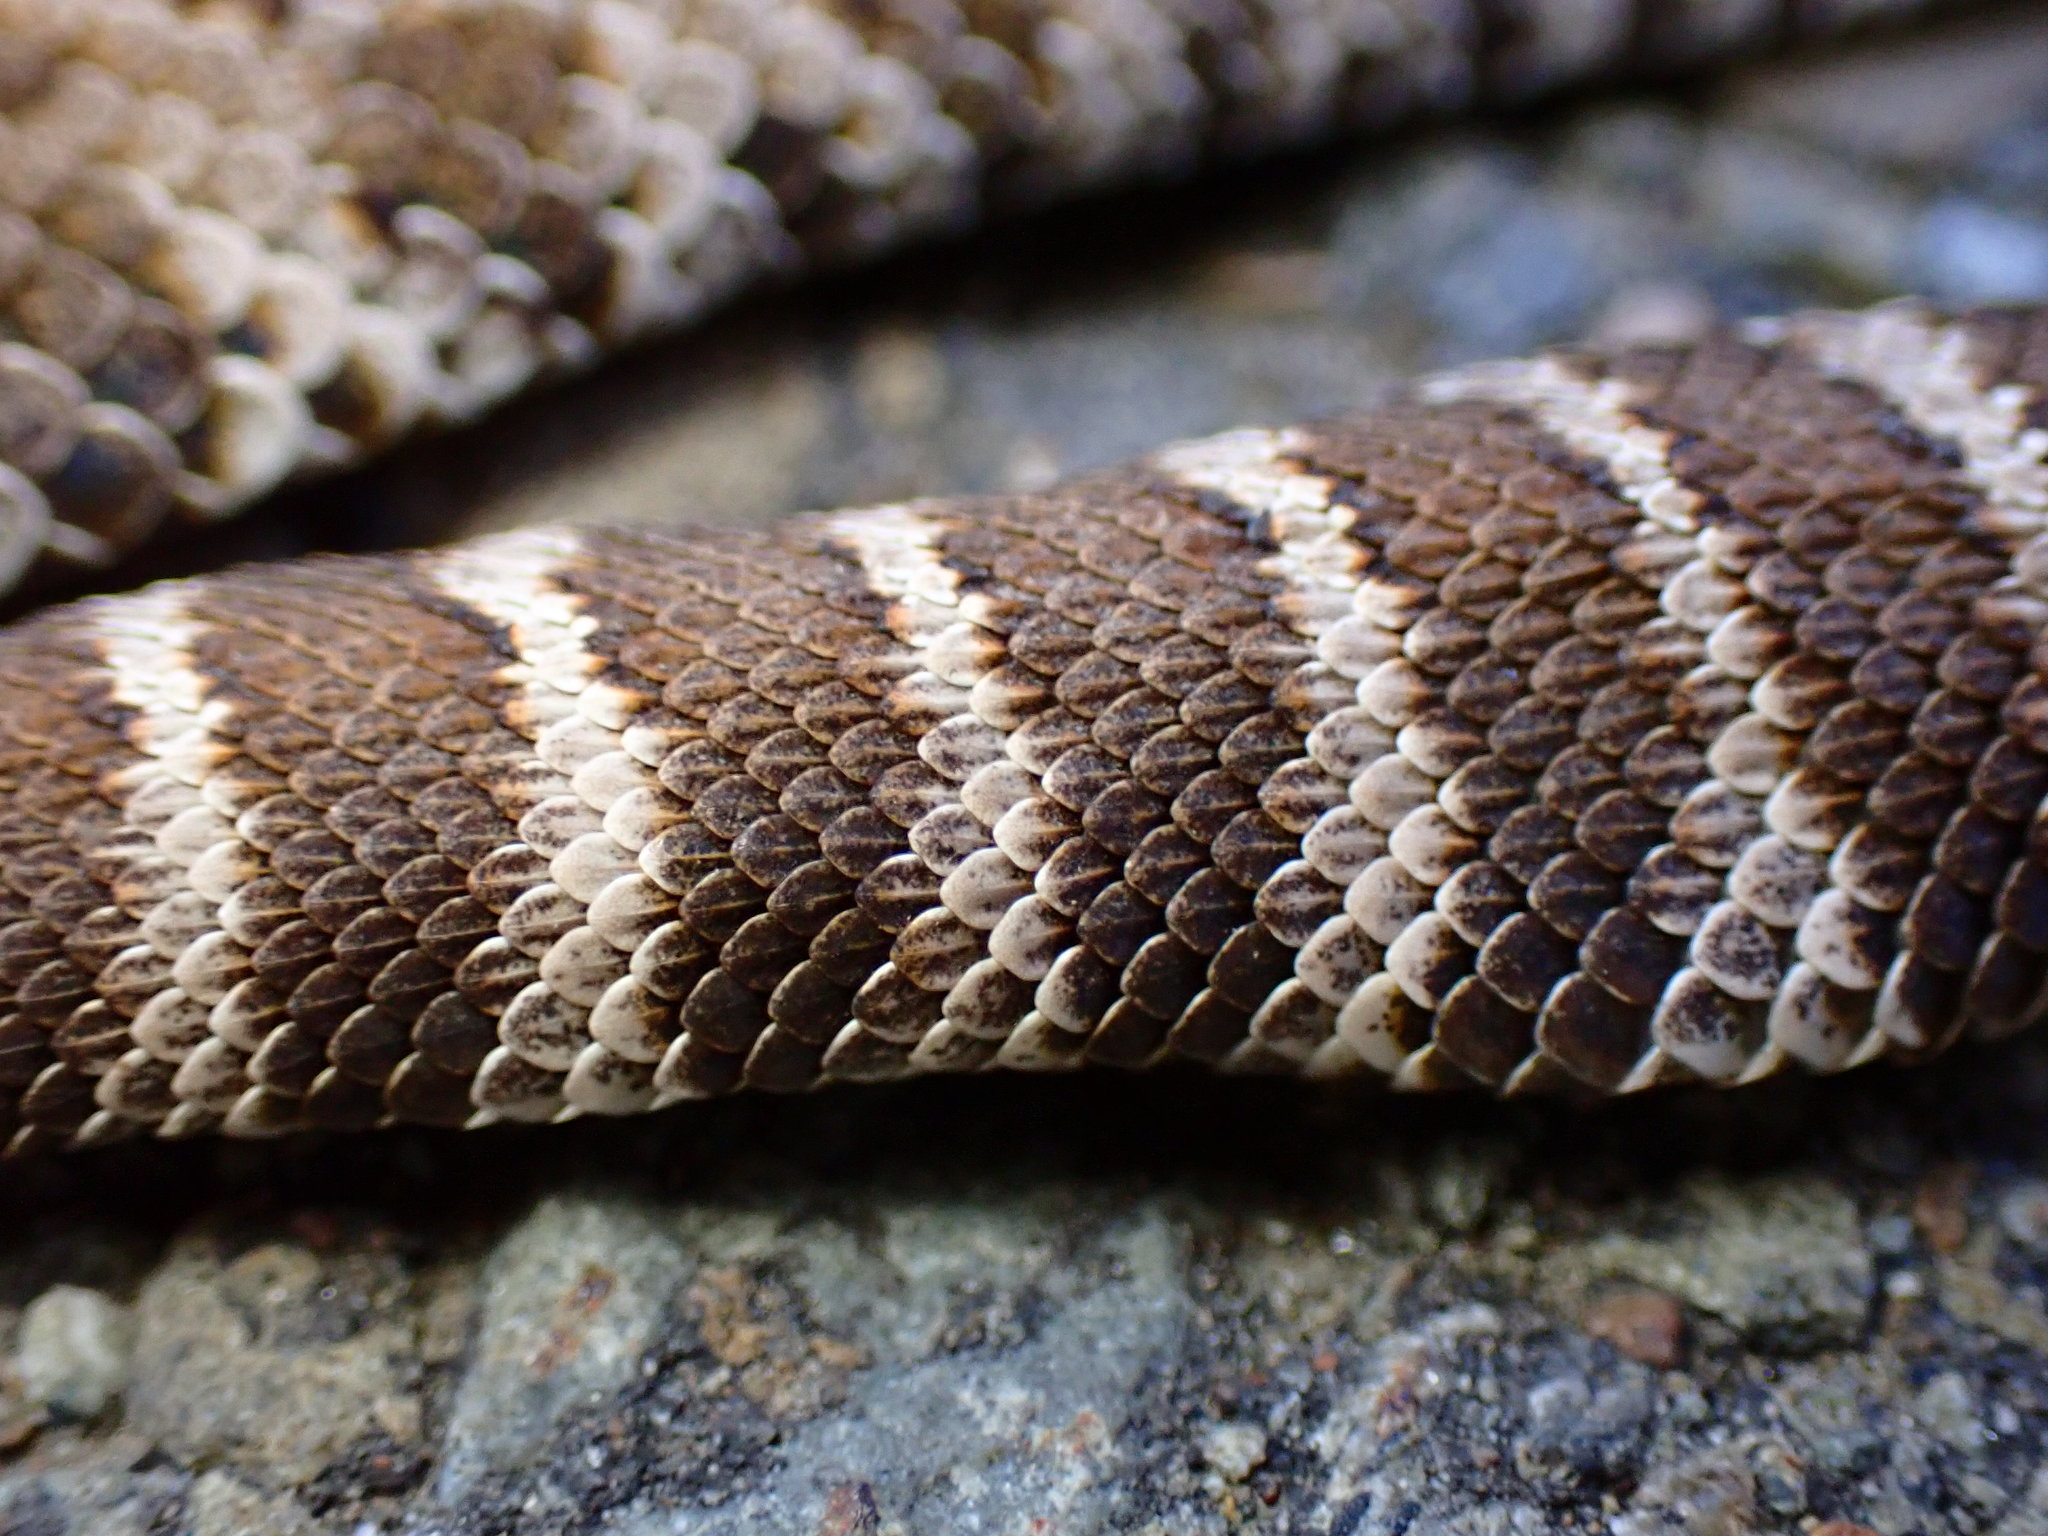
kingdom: Animalia
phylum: Chordata
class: Squamata
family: Viperidae
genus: Crotalus
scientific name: Crotalus oreganus
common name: Abyssus
